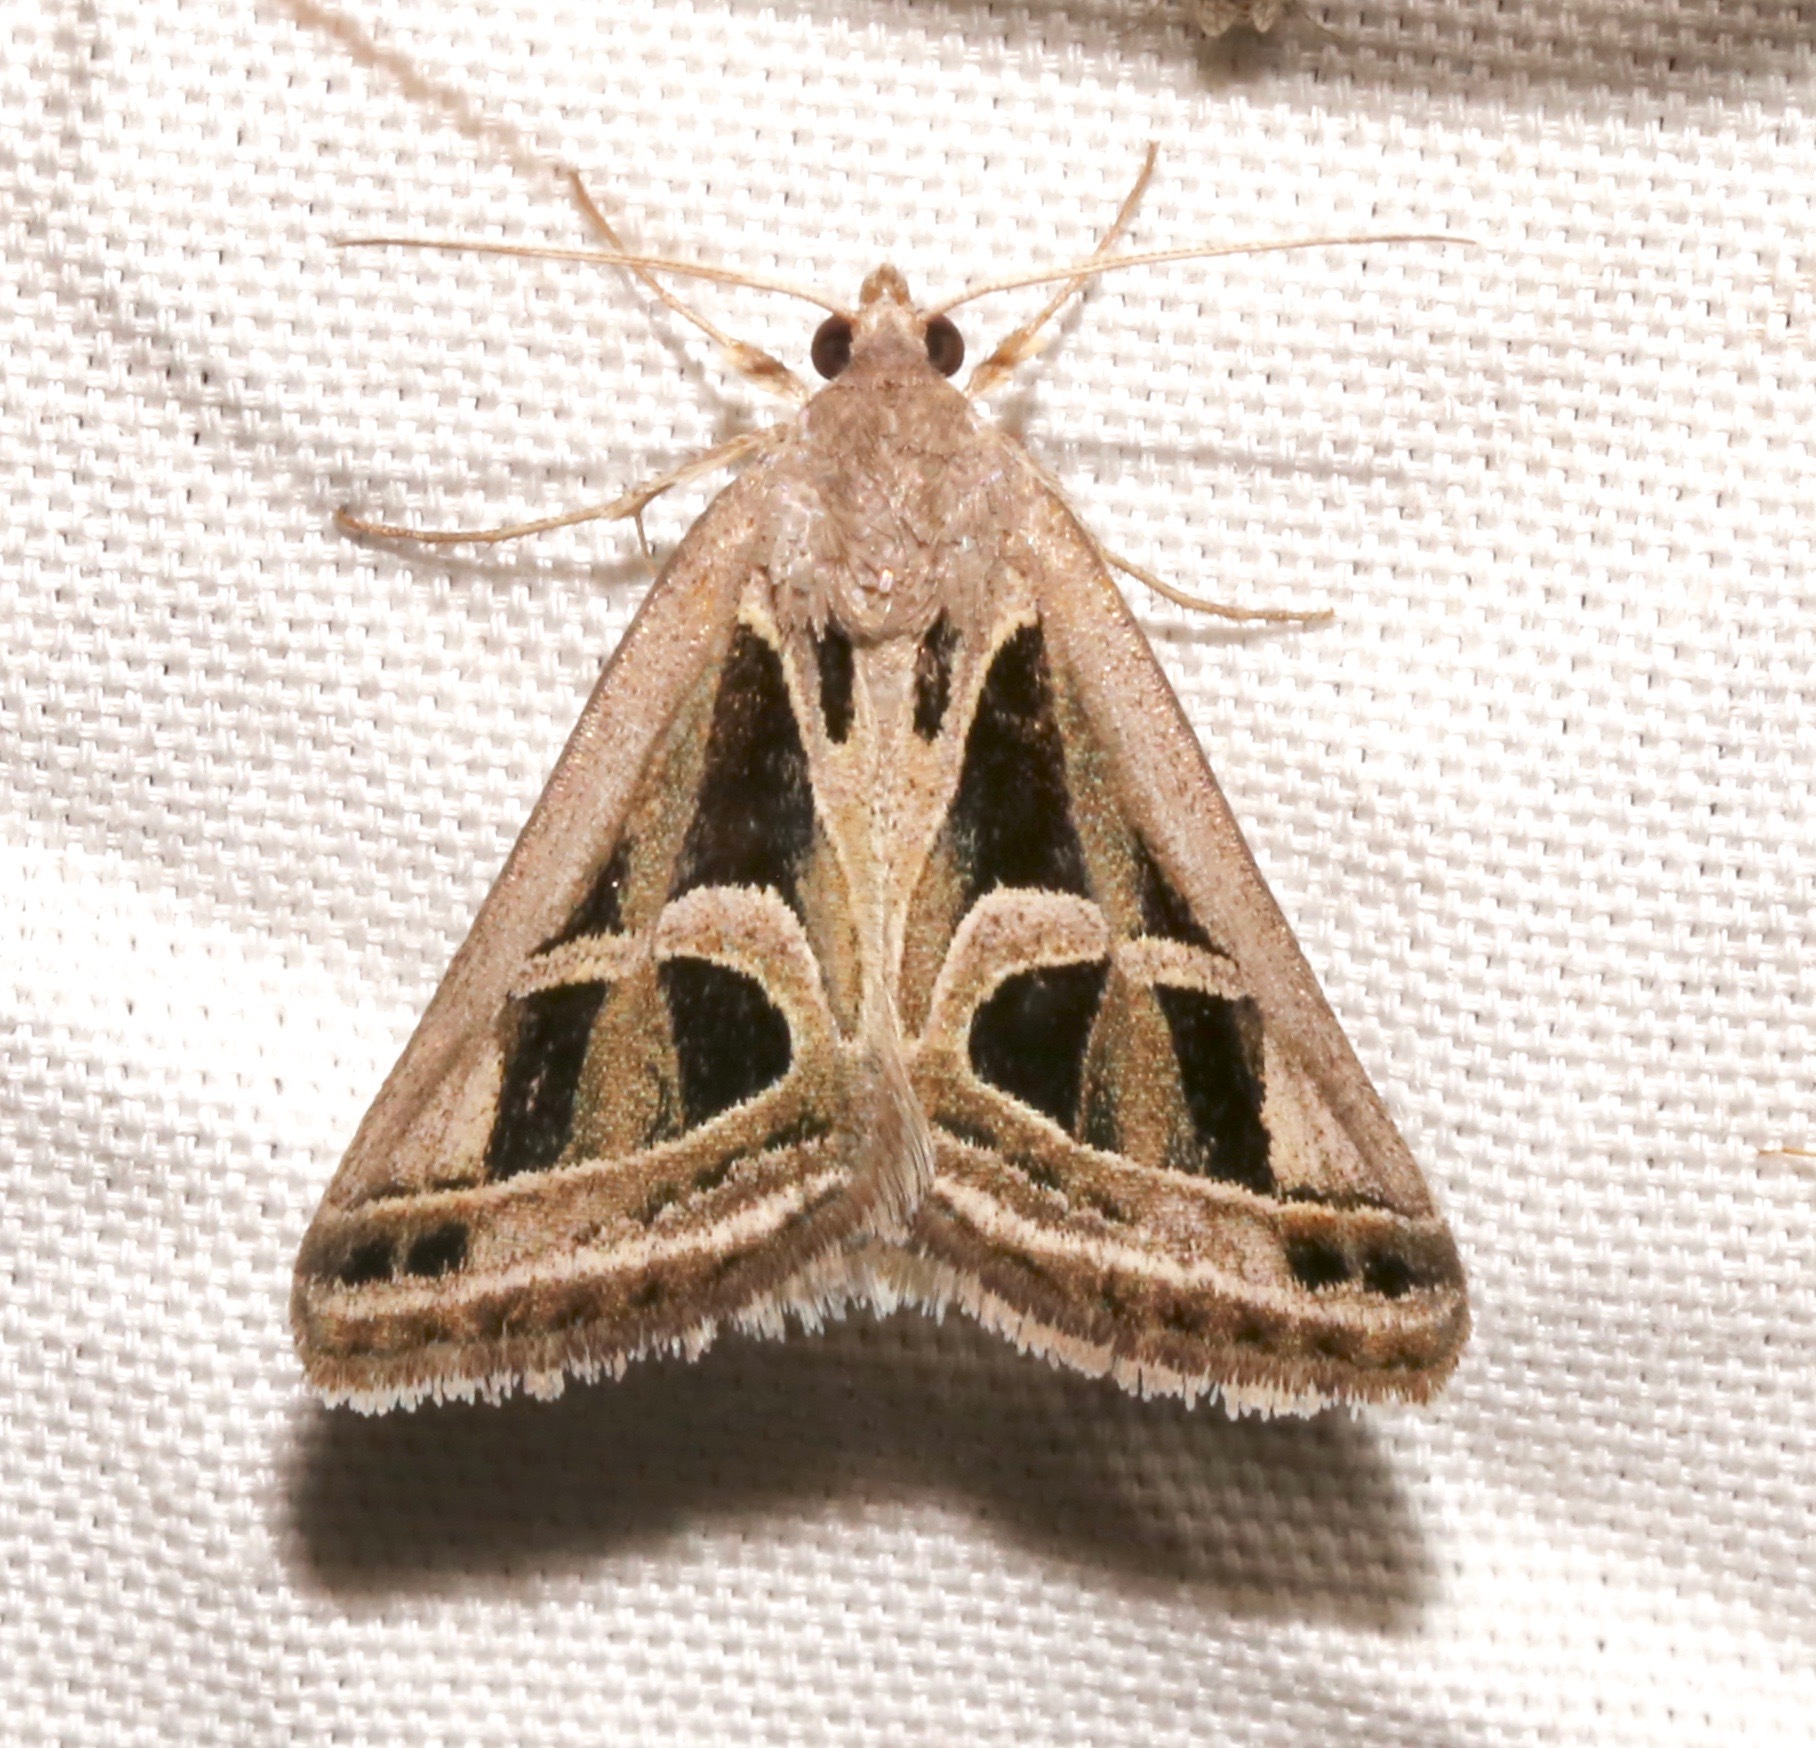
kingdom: Animalia
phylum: Arthropoda
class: Insecta
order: Lepidoptera
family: Erebidae
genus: Callistege
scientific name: Callistege intercalaris
